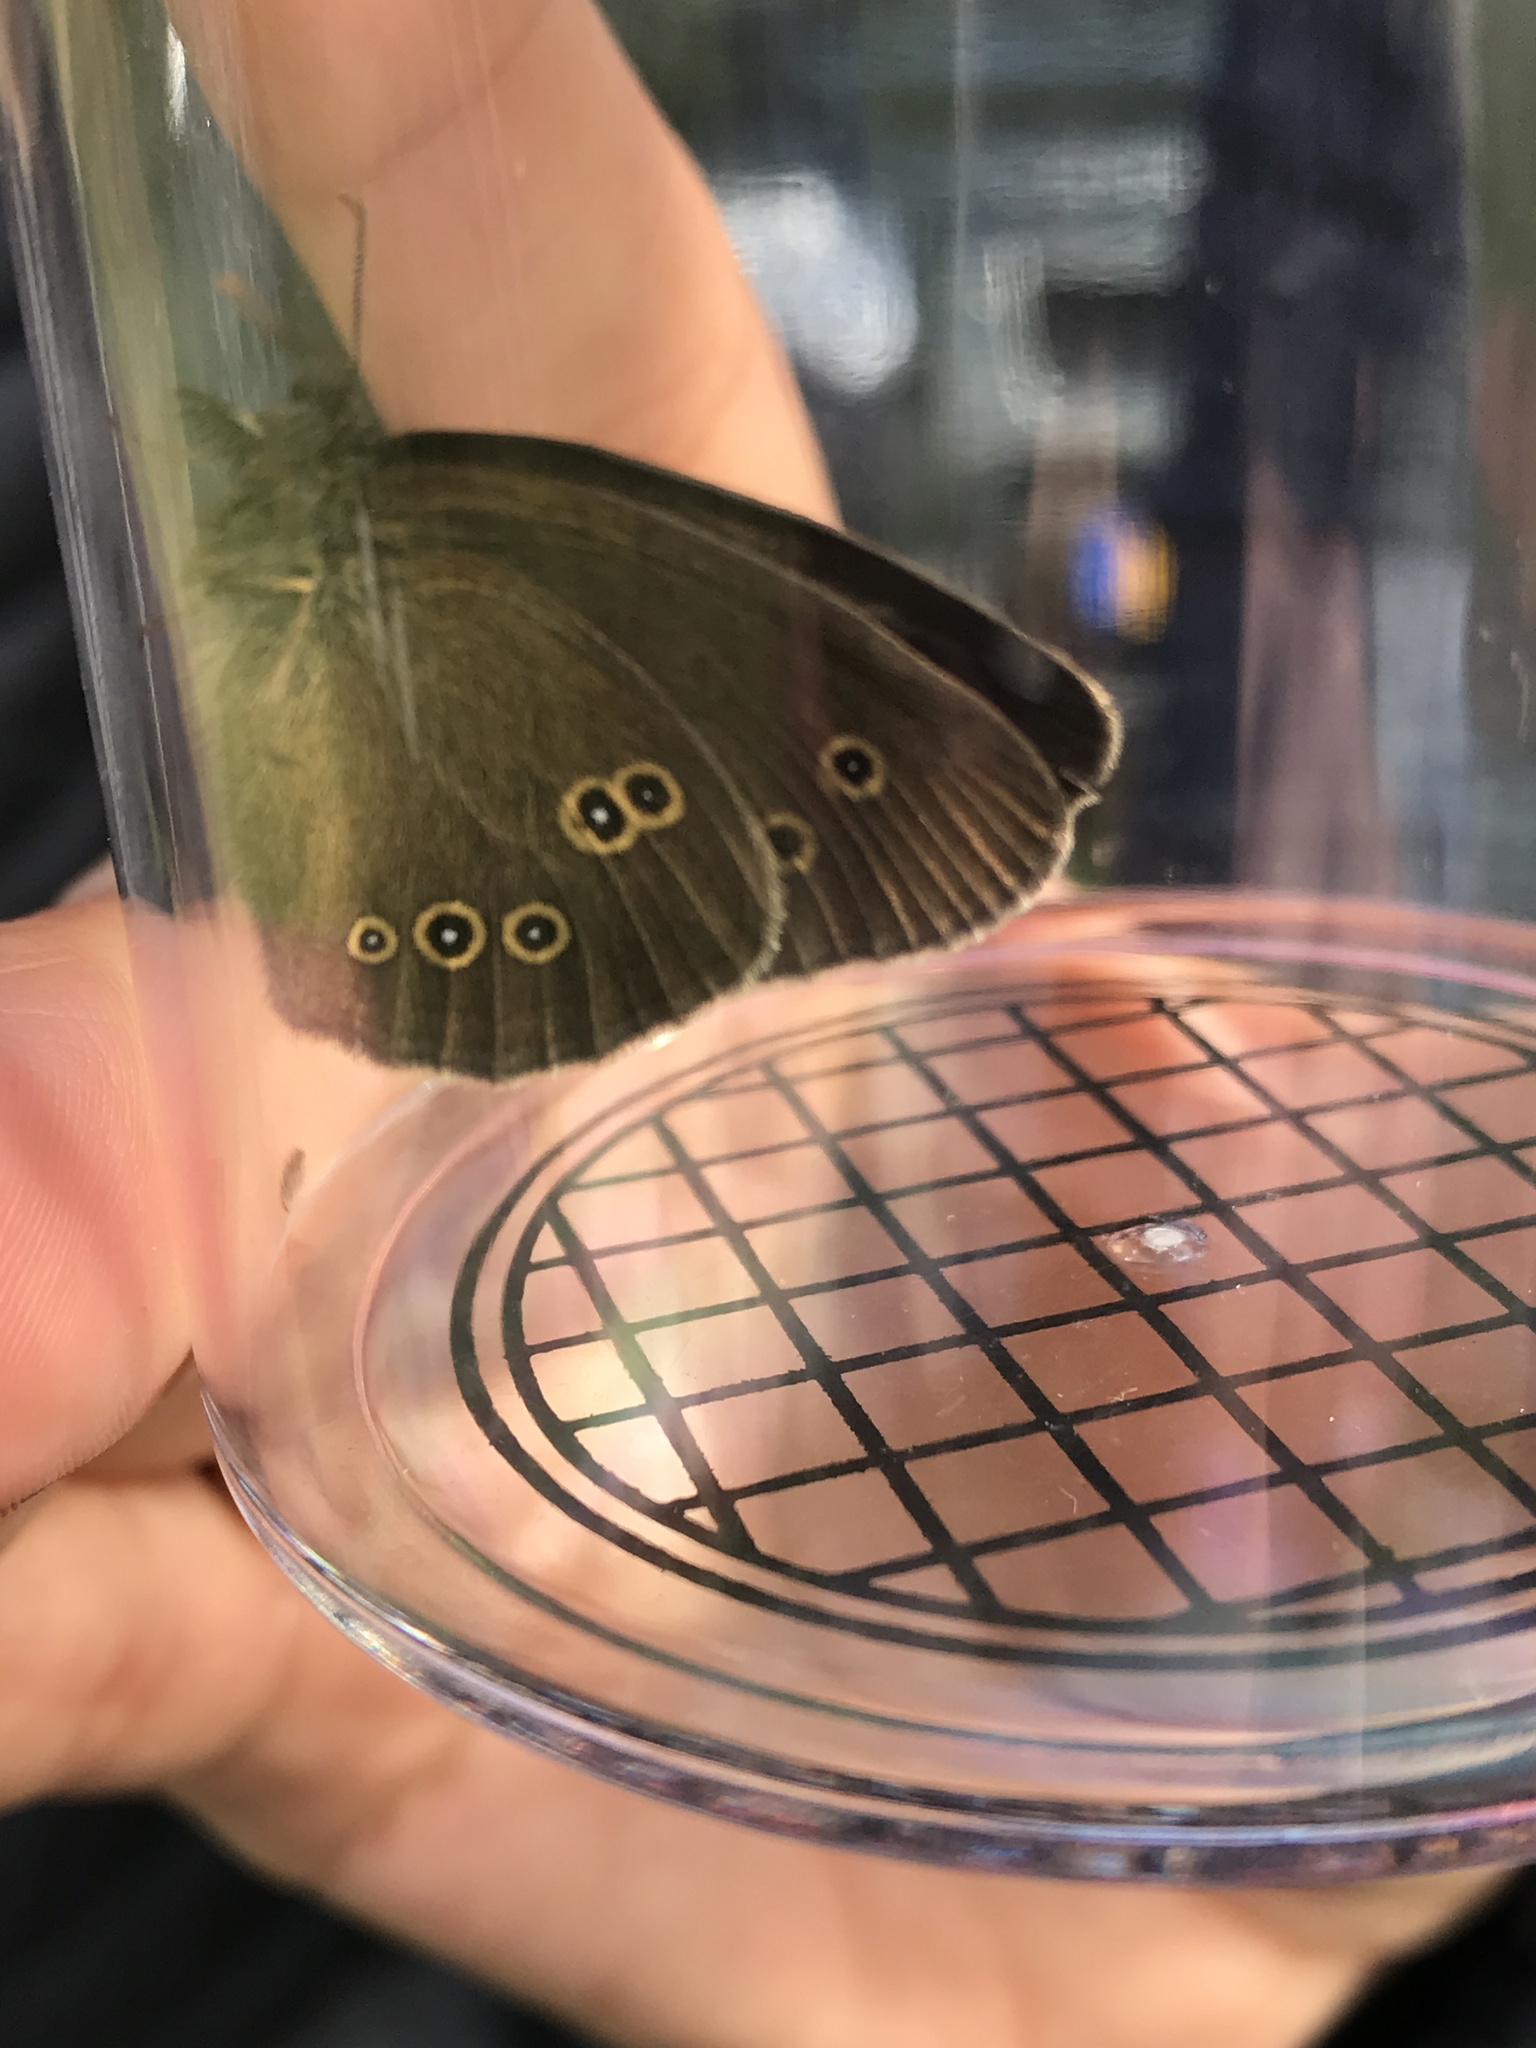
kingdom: Animalia
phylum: Arthropoda
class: Insecta
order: Lepidoptera
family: Nymphalidae
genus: Aphantopus
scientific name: Aphantopus hyperantus
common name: Ringlet
